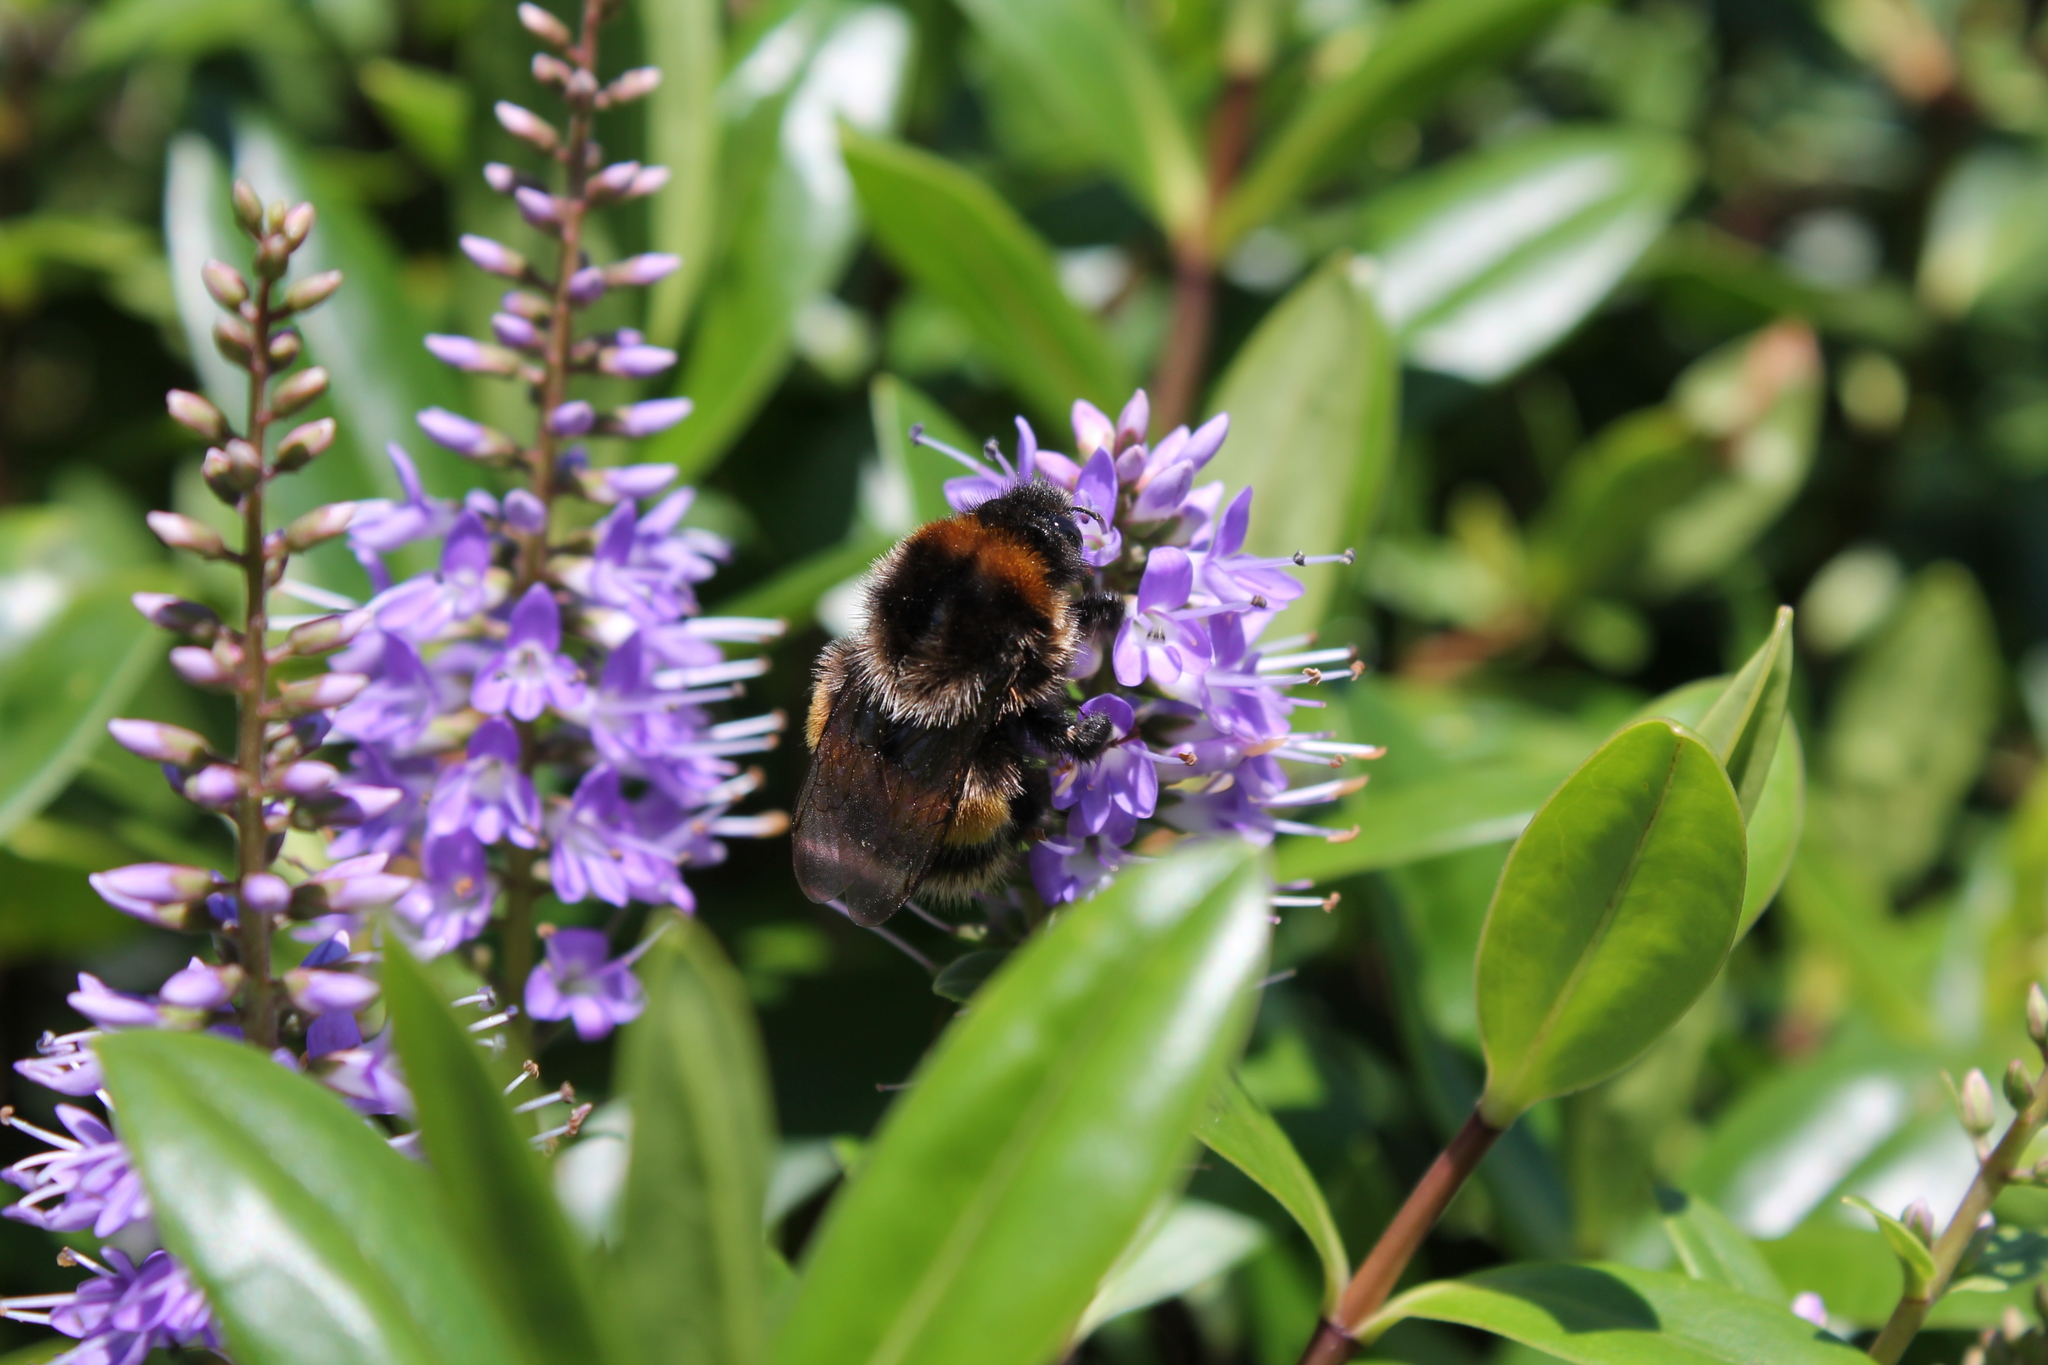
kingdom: Animalia
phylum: Arthropoda
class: Insecta
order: Hymenoptera
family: Apidae
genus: Bombus
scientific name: Bombus terrestris
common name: Buff-tailed bumblebee
